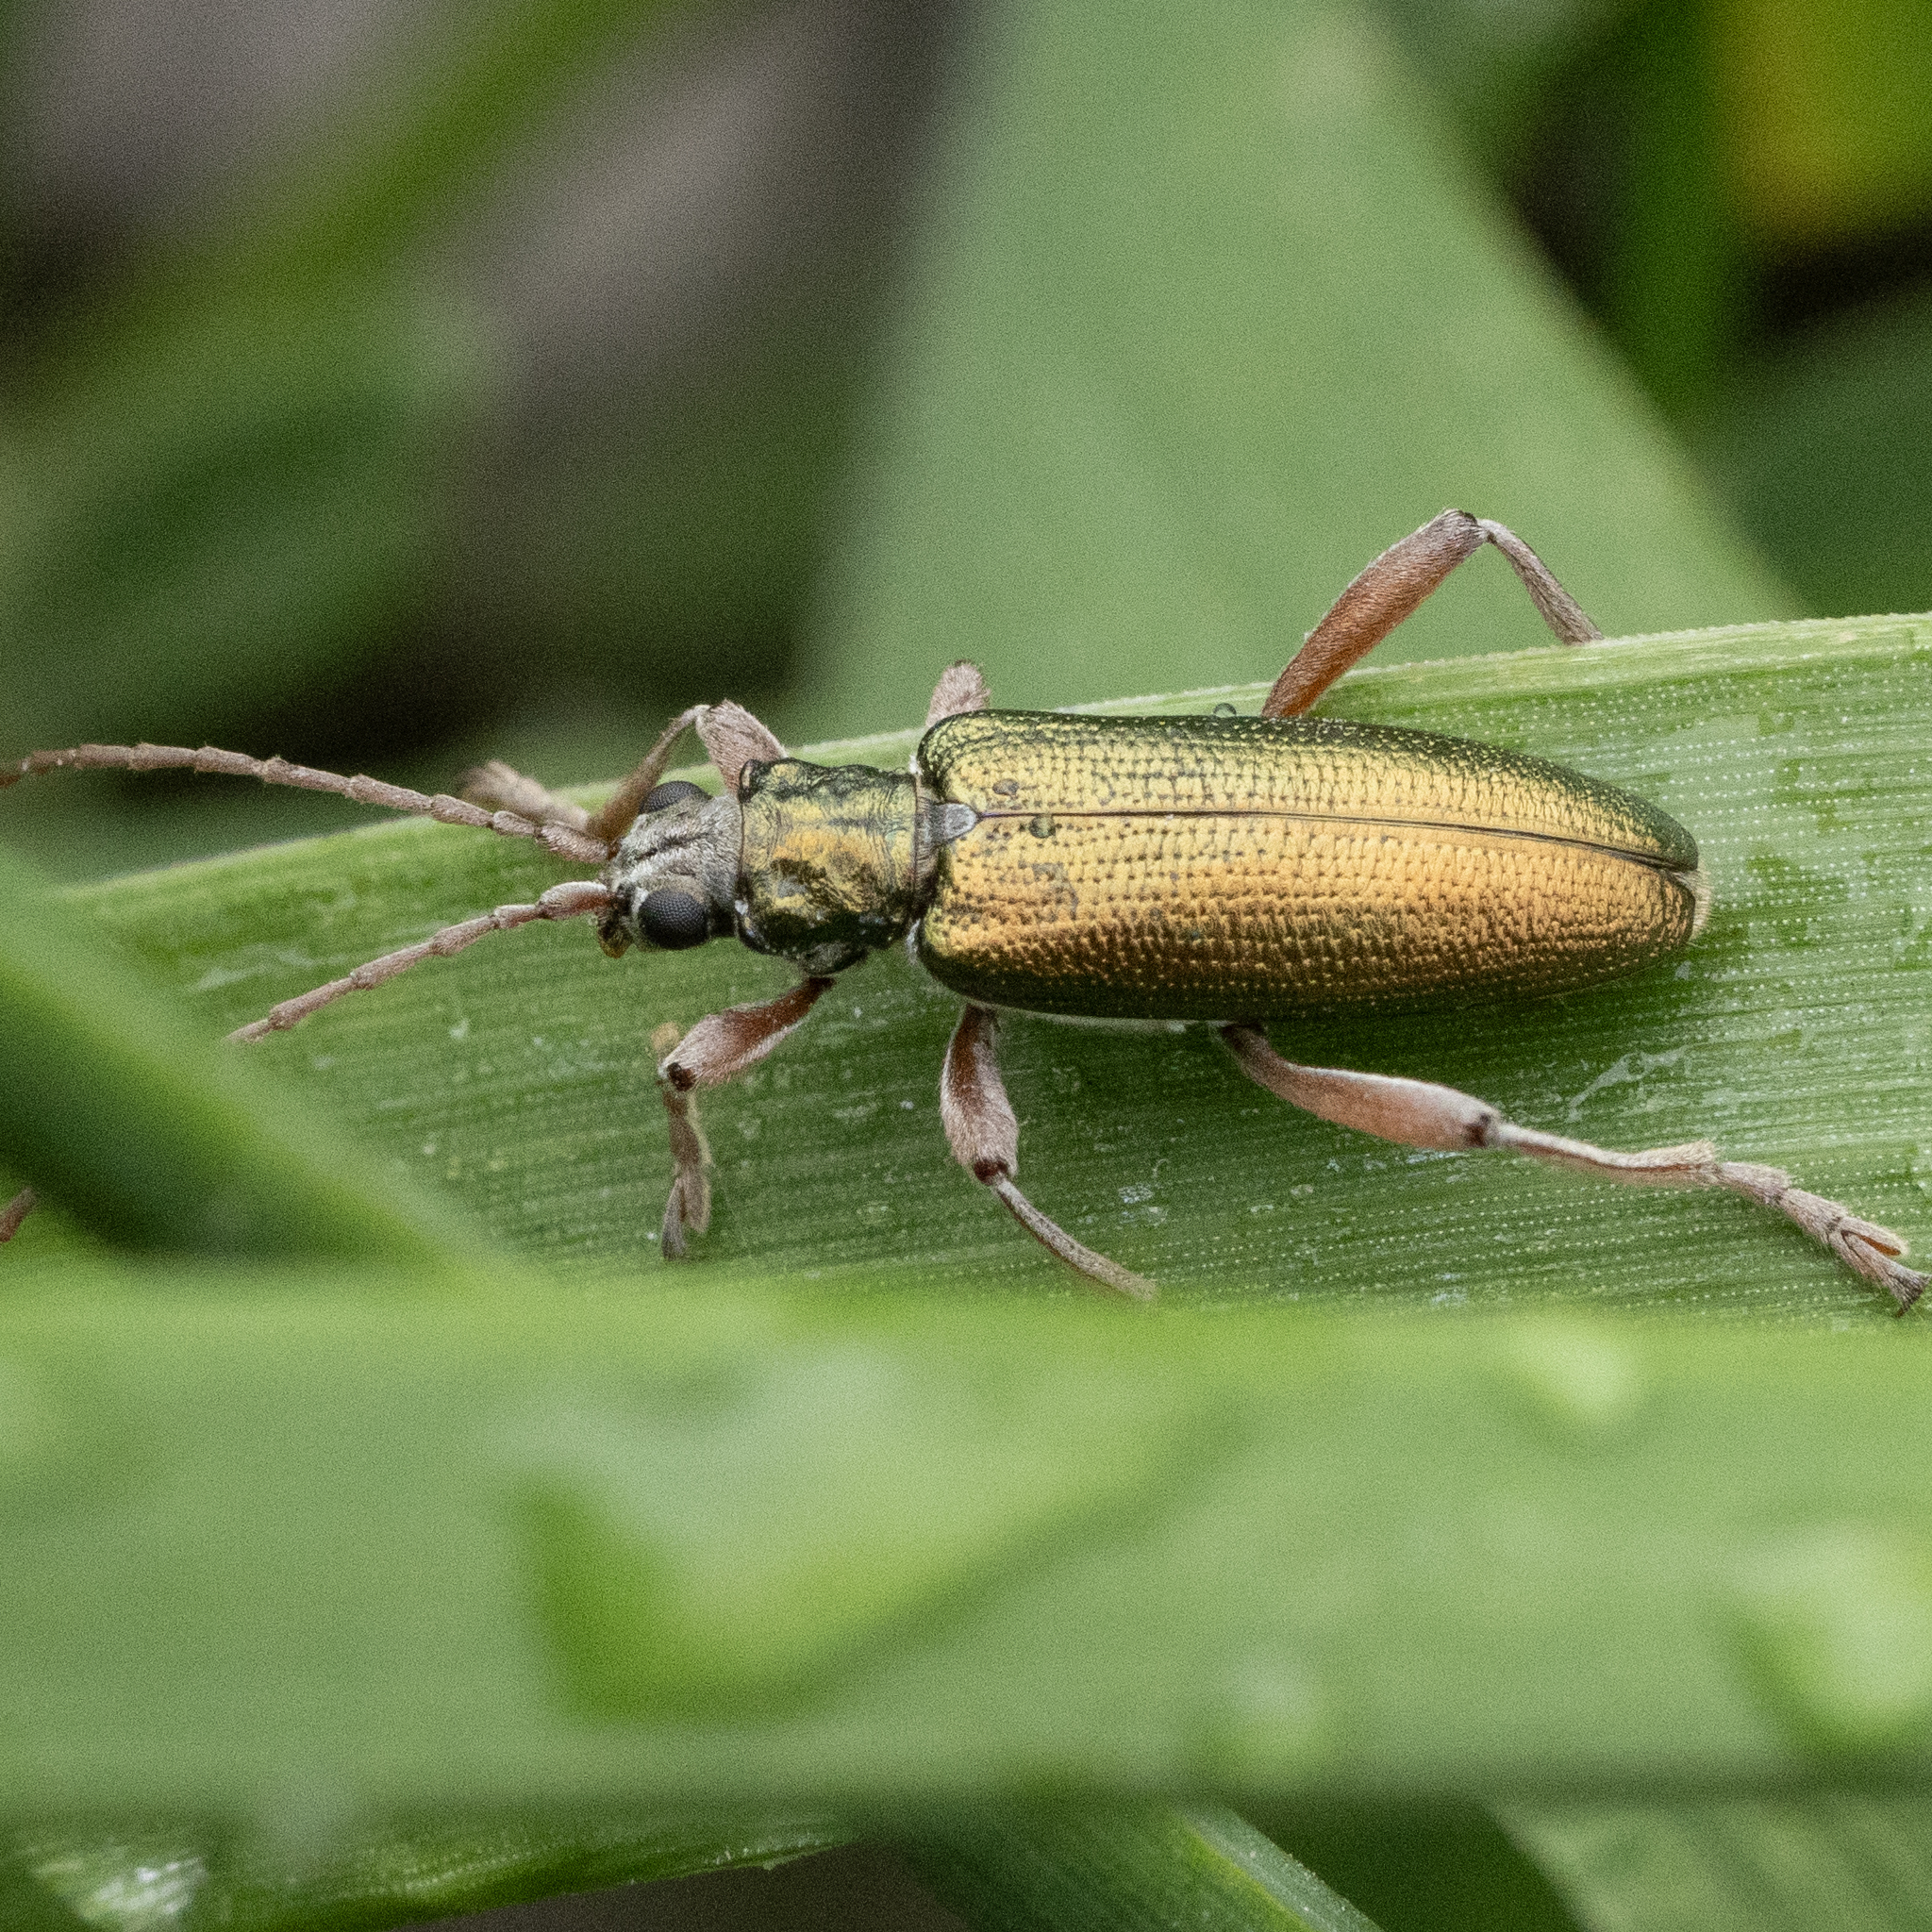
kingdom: Animalia
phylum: Arthropoda
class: Insecta
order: Coleoptera
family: Chrysomelidae
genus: Donacia
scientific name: Donacia clavipes
